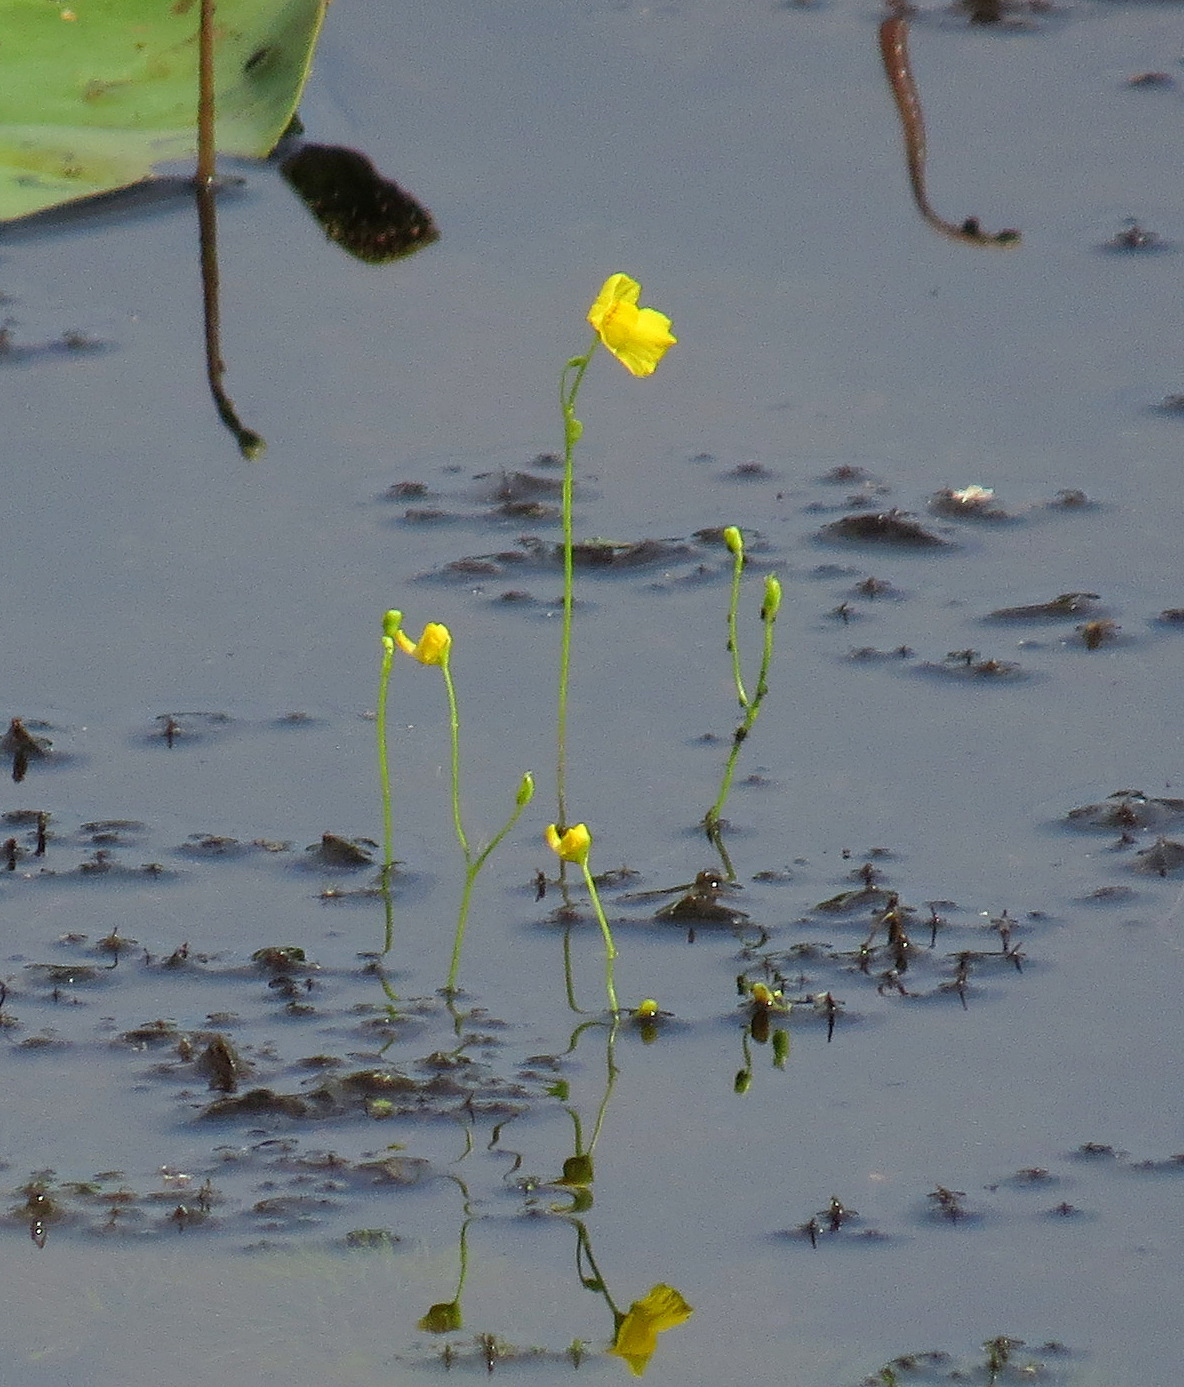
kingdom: Plantae
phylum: Tracheophyta
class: Magnoliopsida
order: Lamiales
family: Lentibulariaceae
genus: Utricularia
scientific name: Utricularia gibba
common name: Humped bladderwort
